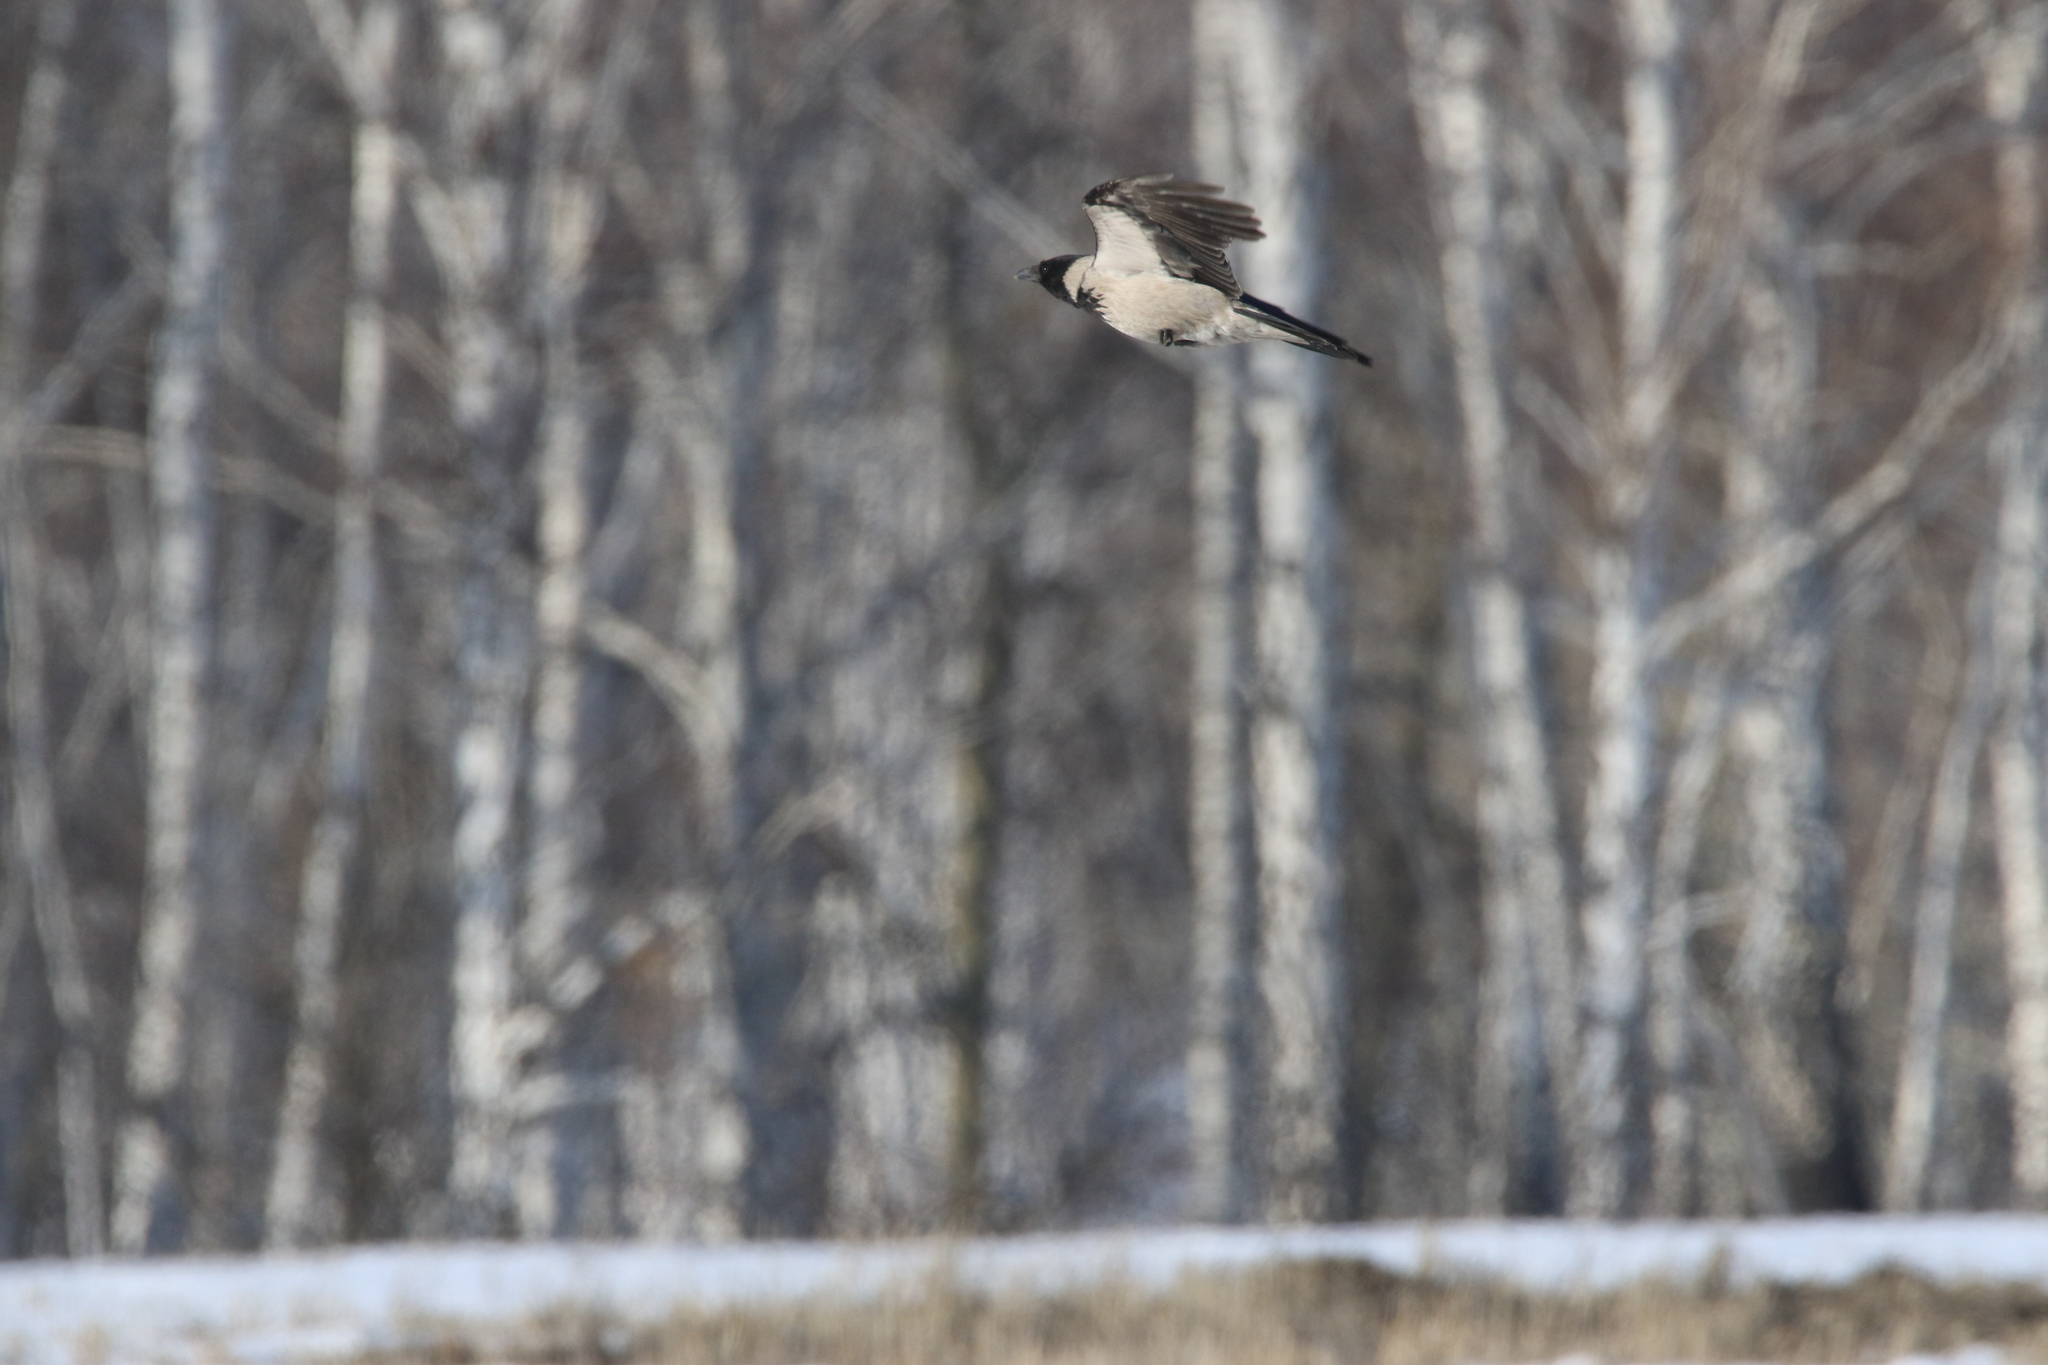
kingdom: Animalia
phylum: Chordata
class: Aves
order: Passeriformes
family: Corvidae
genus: Corvus
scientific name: Corvus cornix
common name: Hooded crow
